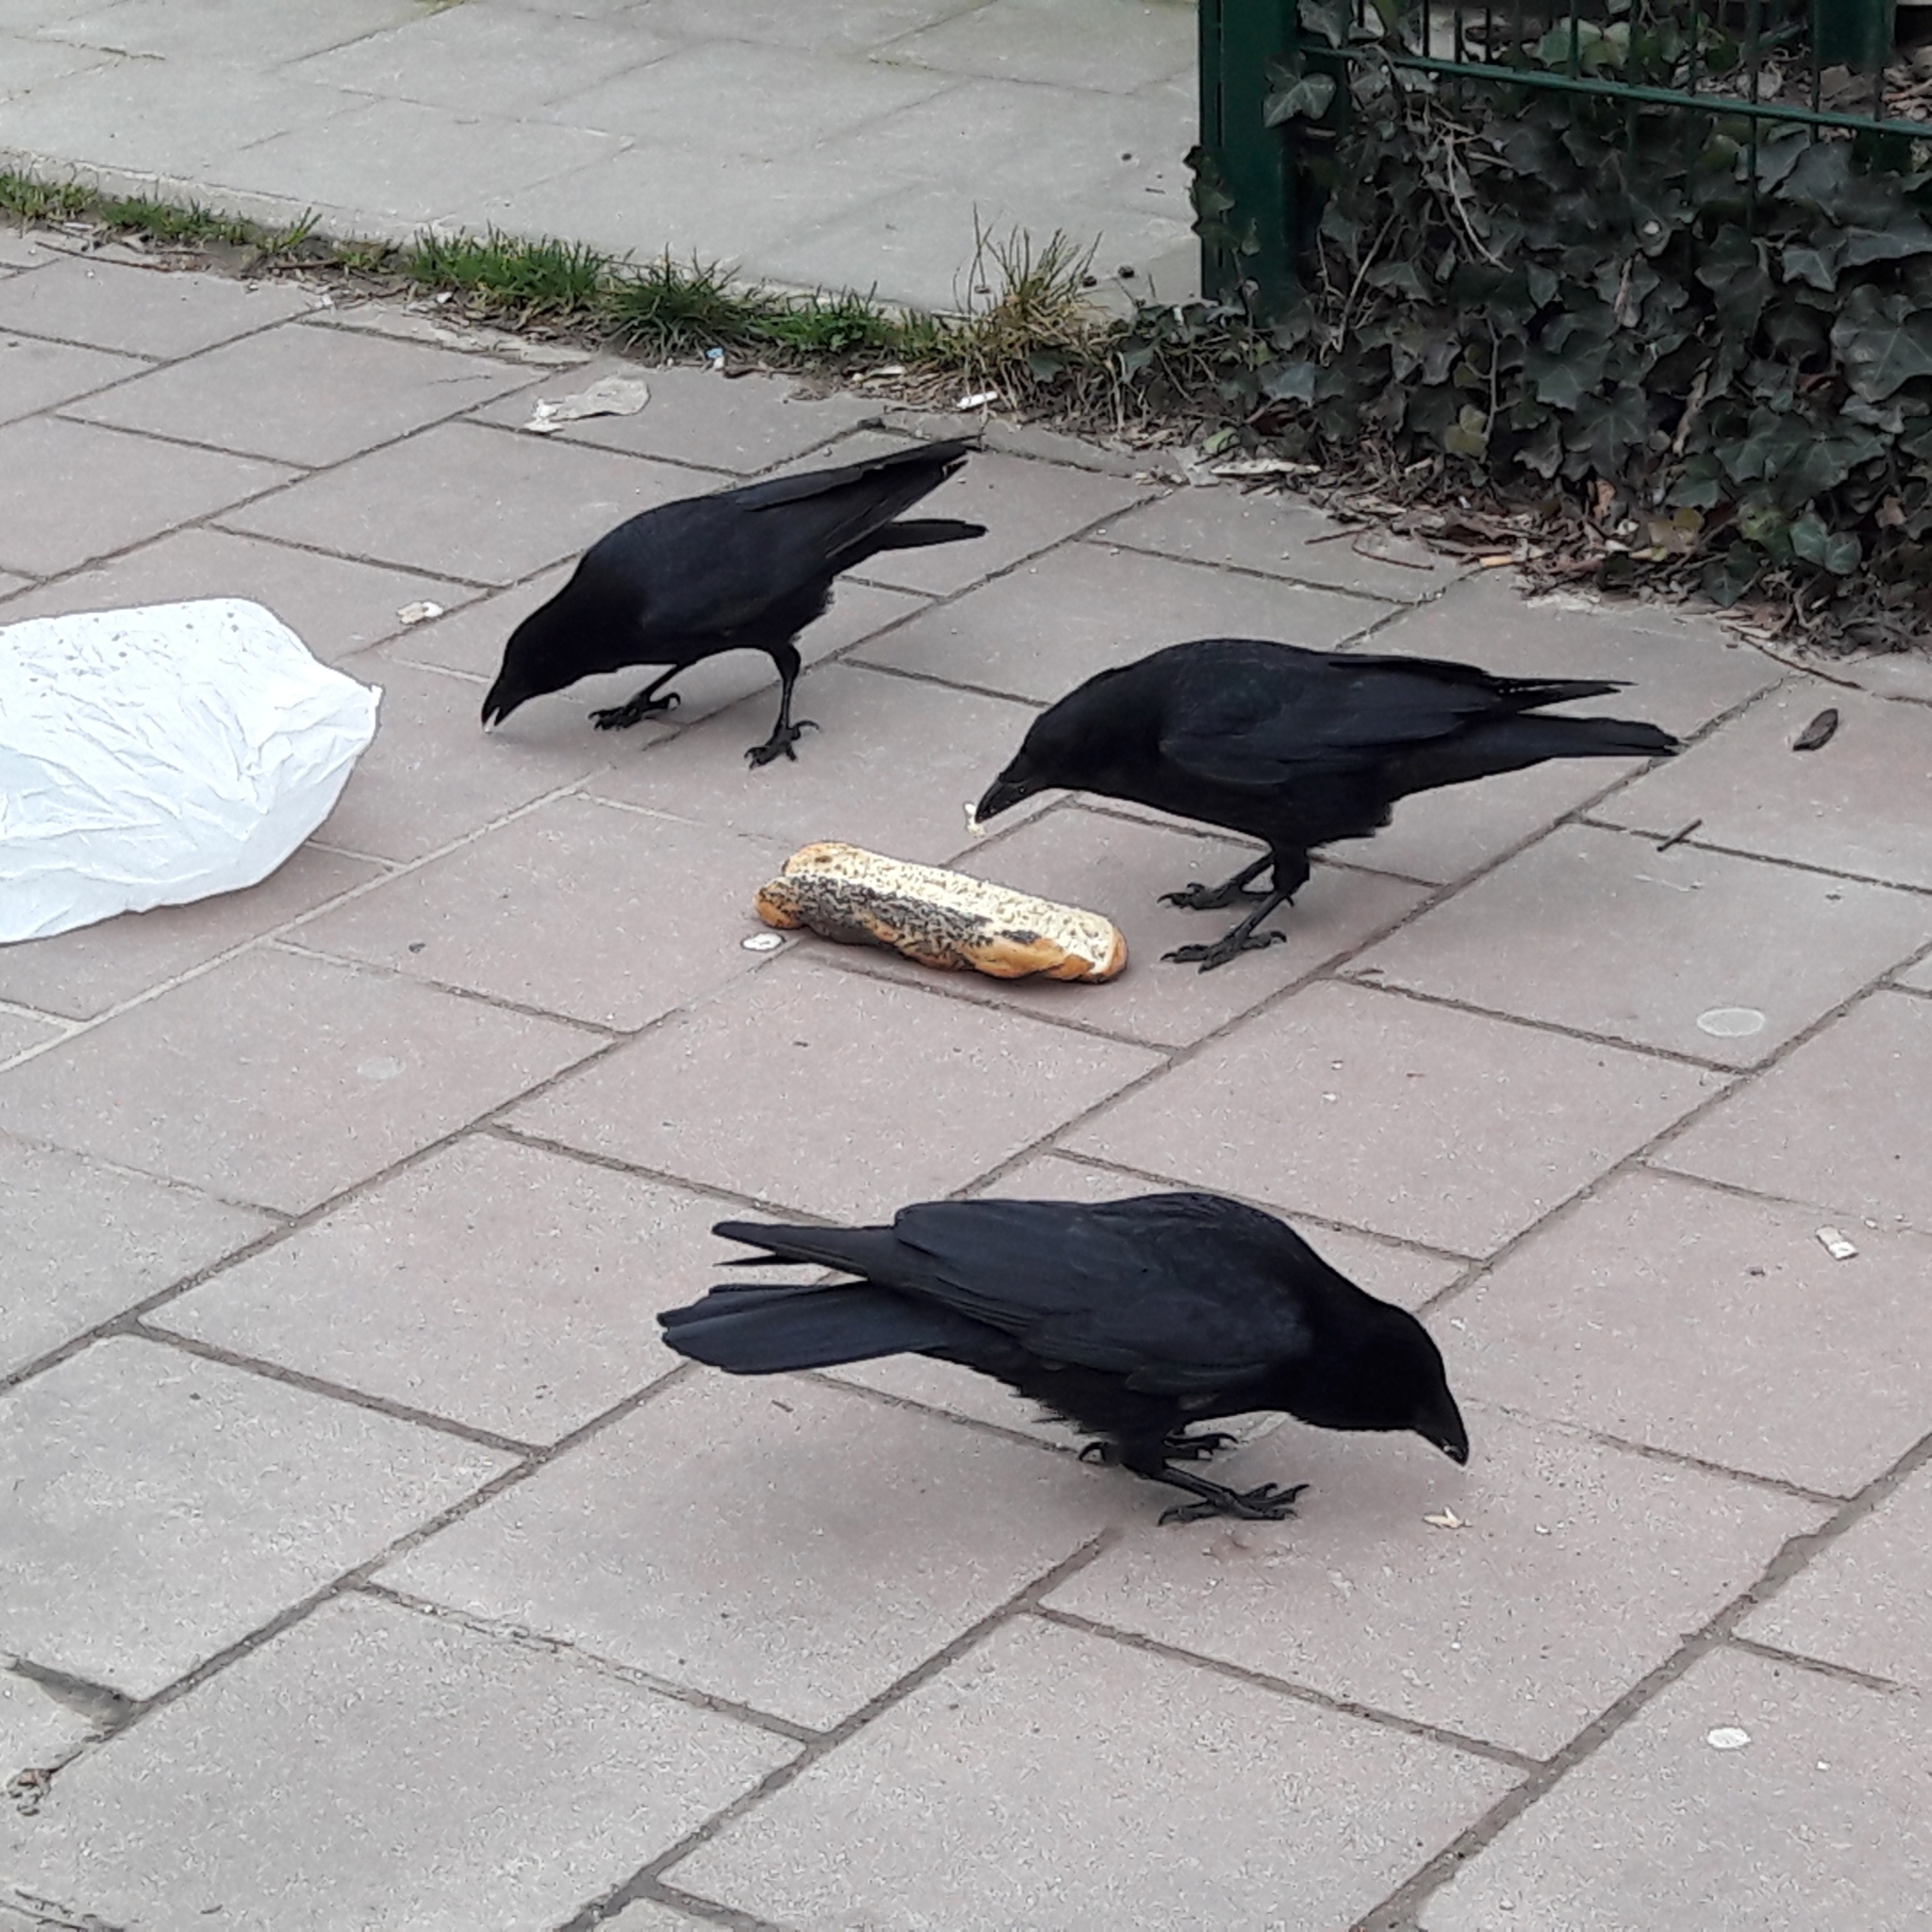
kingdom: Animalia
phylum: Chordata
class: Aves
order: Passeriformes
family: Corvidae
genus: Corvus
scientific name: Corvus corone
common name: Carrion crow
